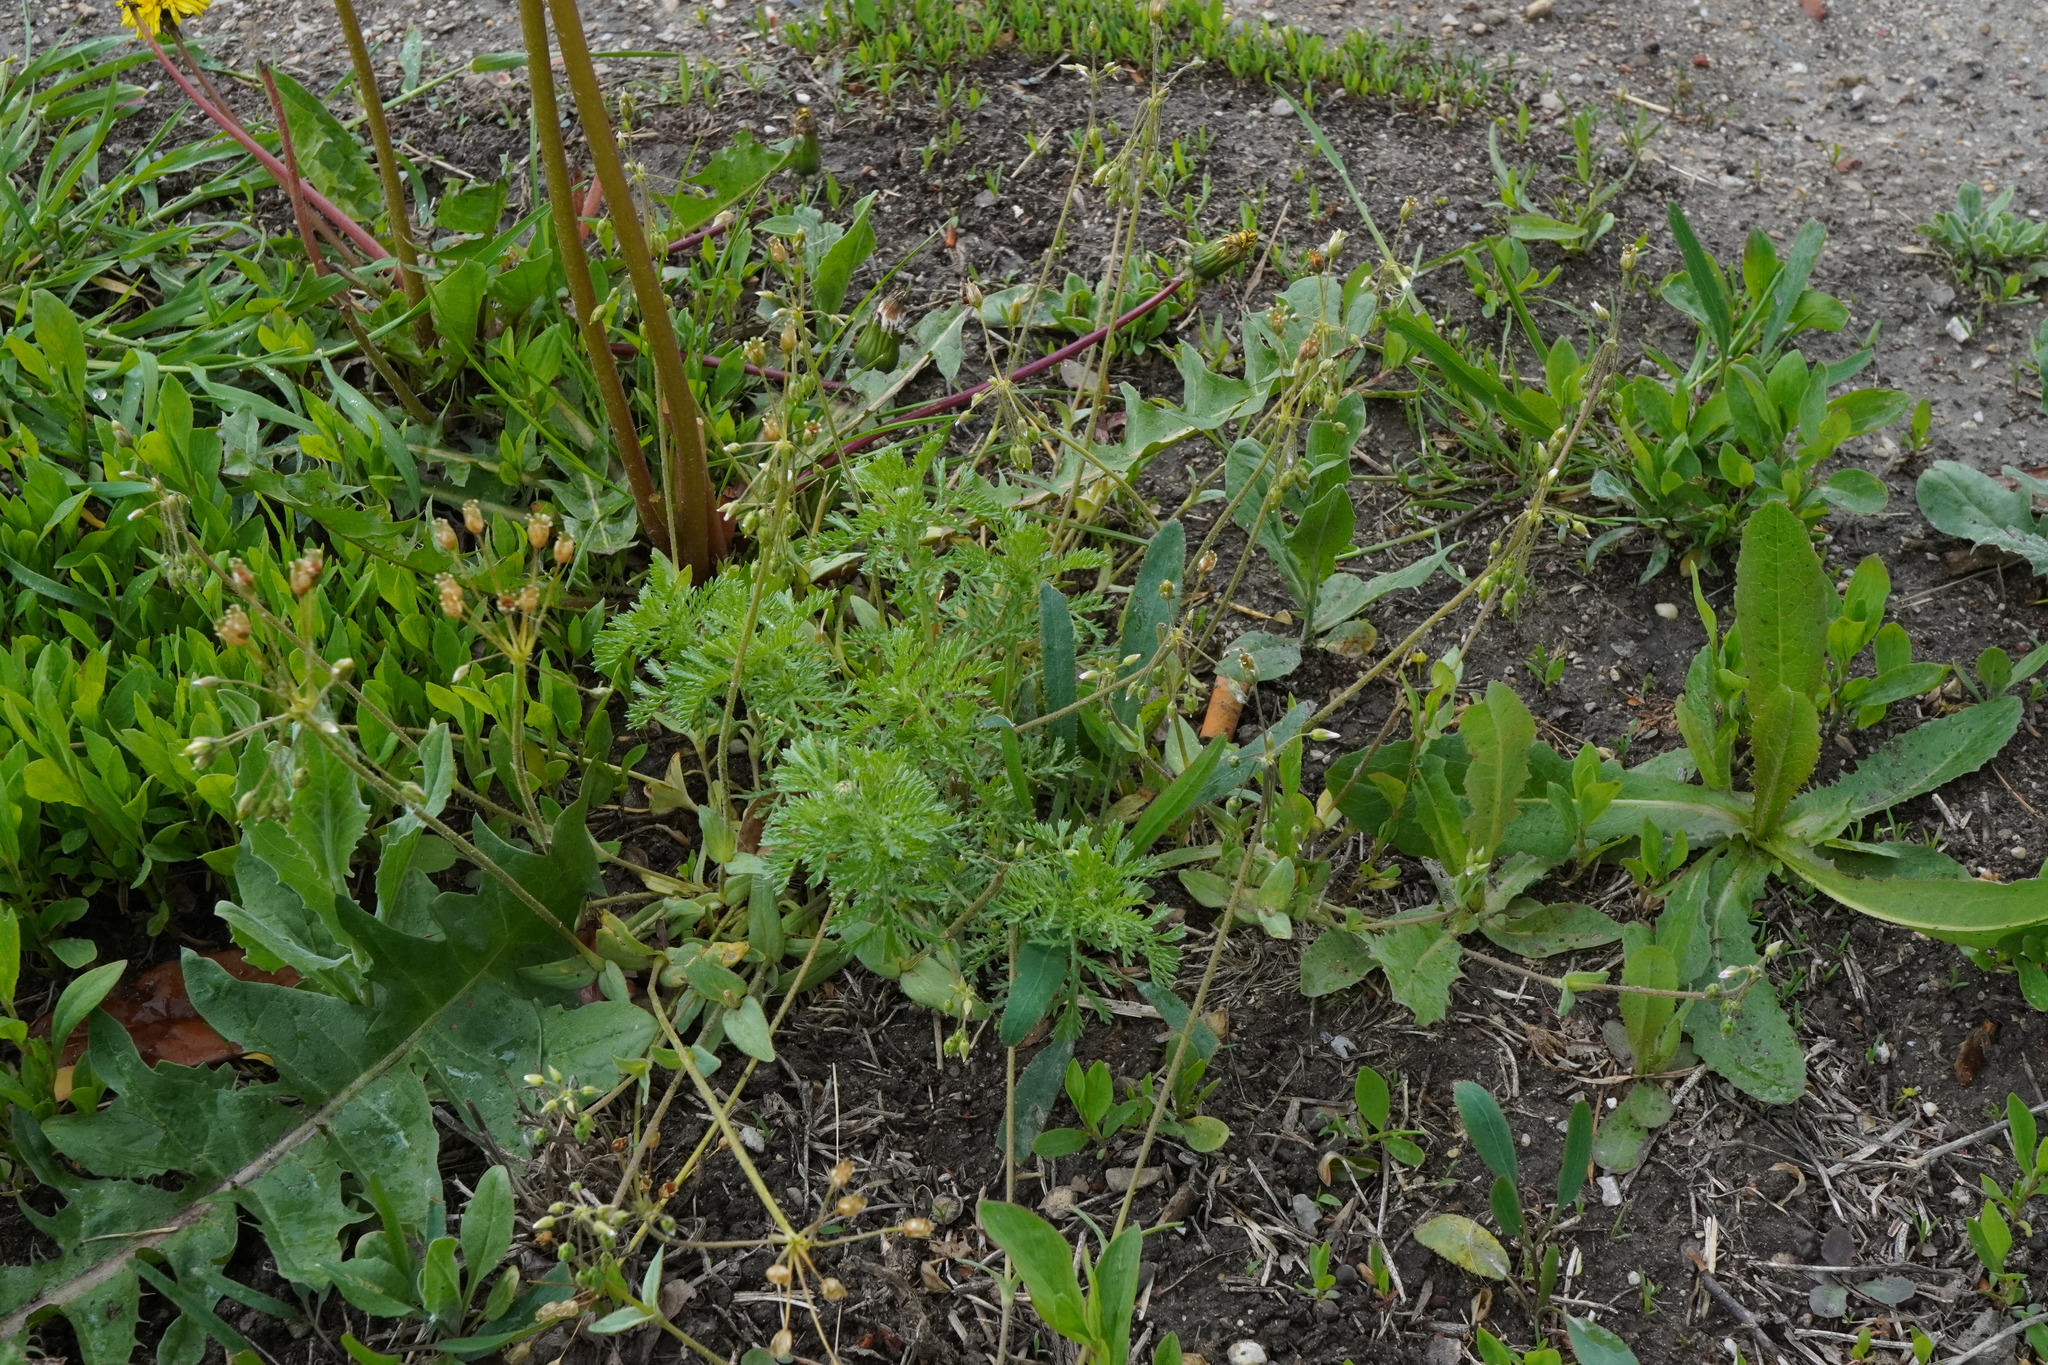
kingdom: Plantae
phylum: Tracheophyta
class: Magnoliopsida
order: Caryophyllales
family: Caryophyllaceae
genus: Holosteum
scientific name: Holosteum umbellatum
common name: Jagged chickweed
